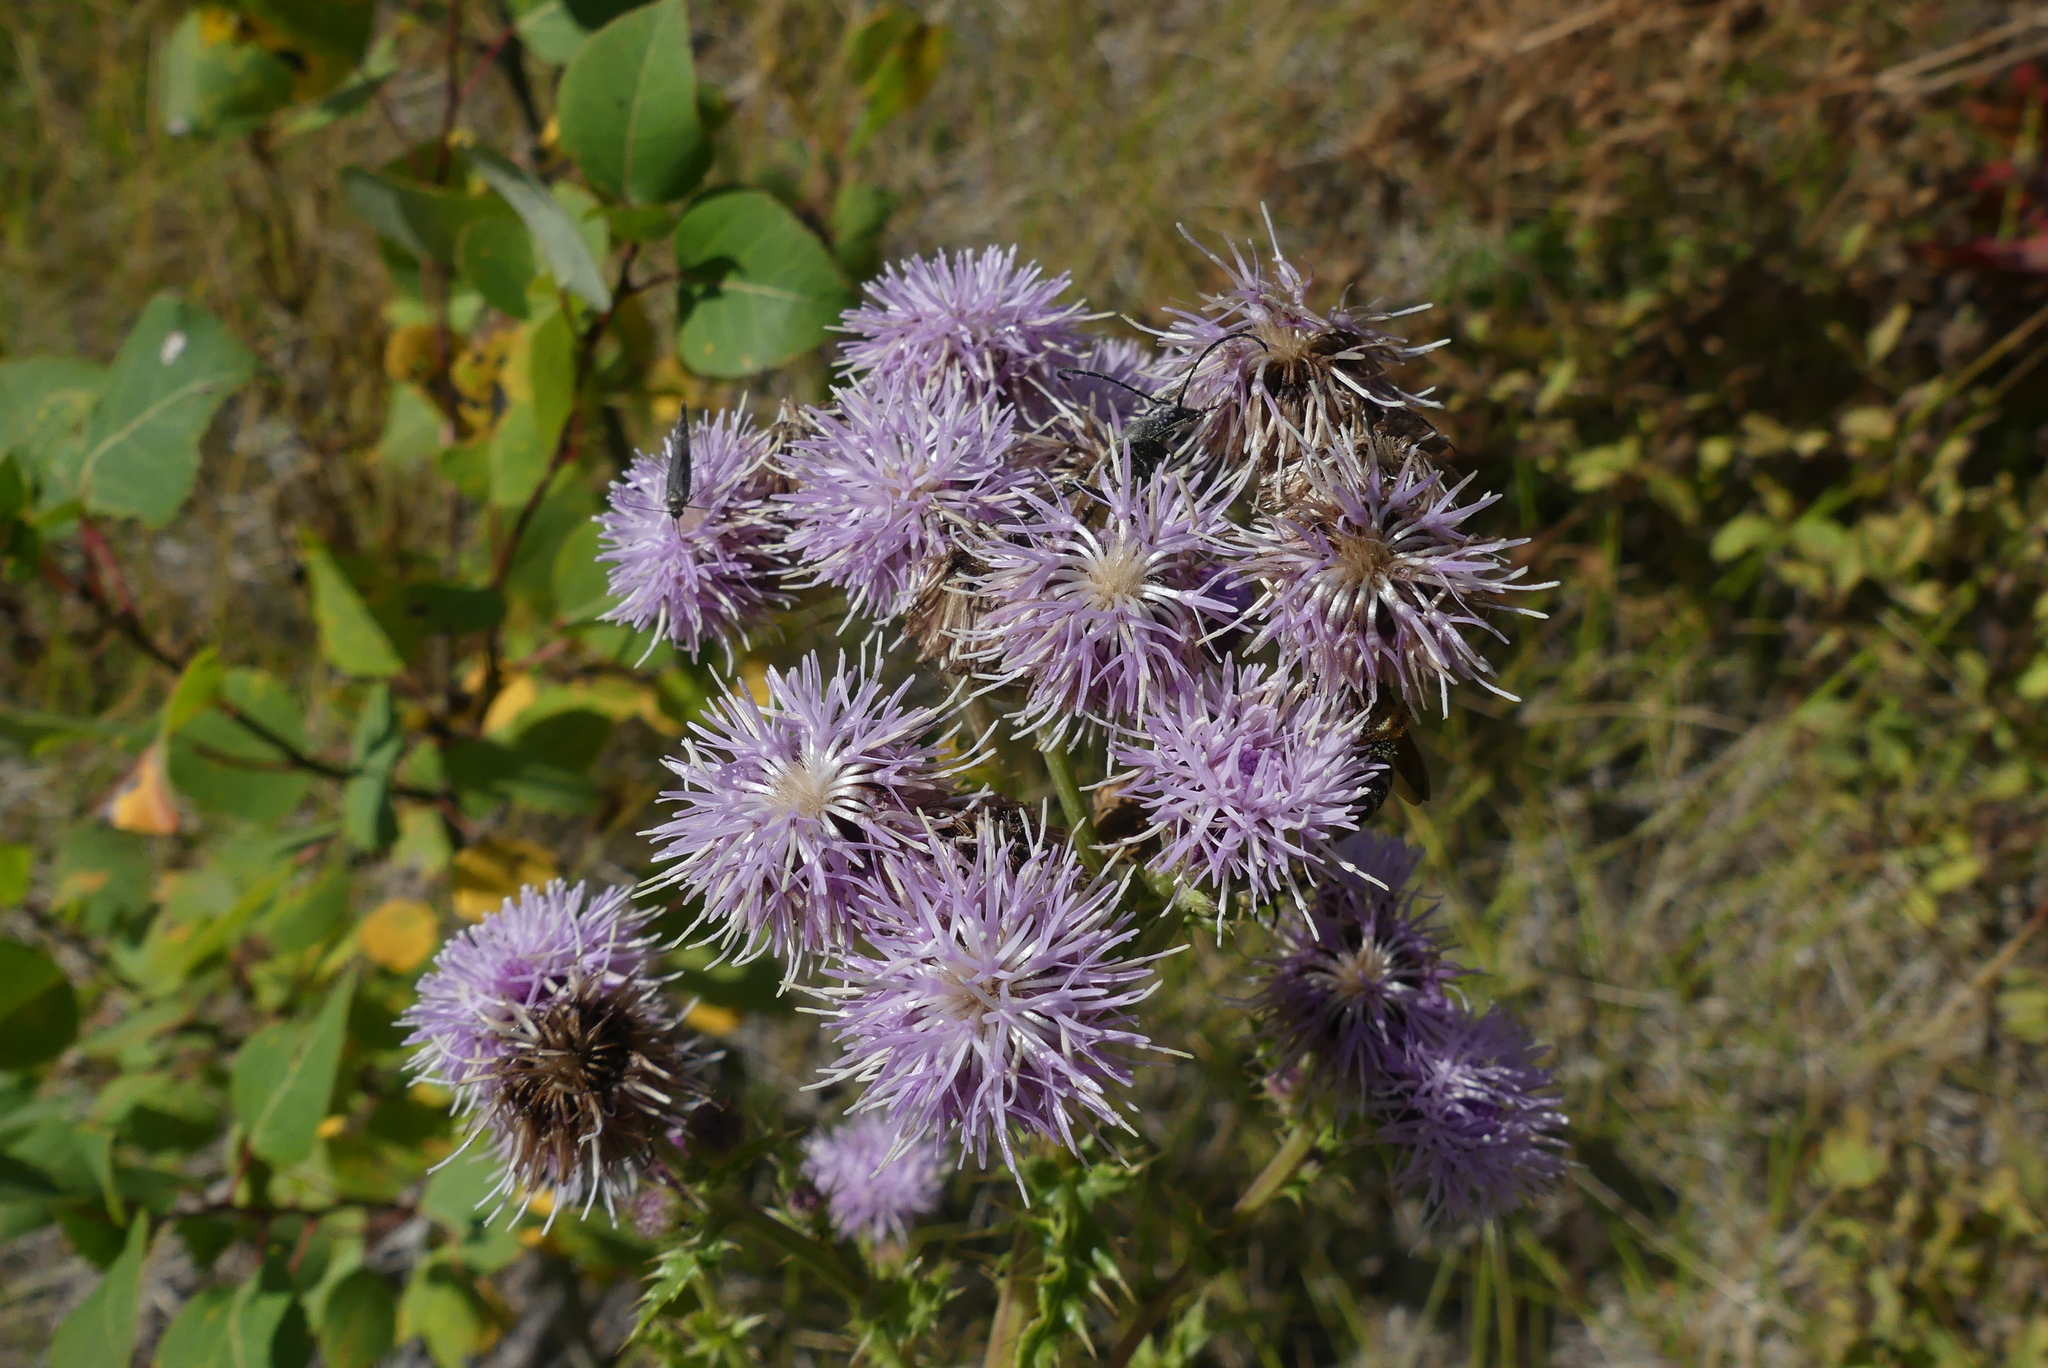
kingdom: Plantae
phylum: Tracheophyta
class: Magnoliopsida
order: Asterales
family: Asteraceae
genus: Cirsium
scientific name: Cirsium arvense
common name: Creeping thistle
